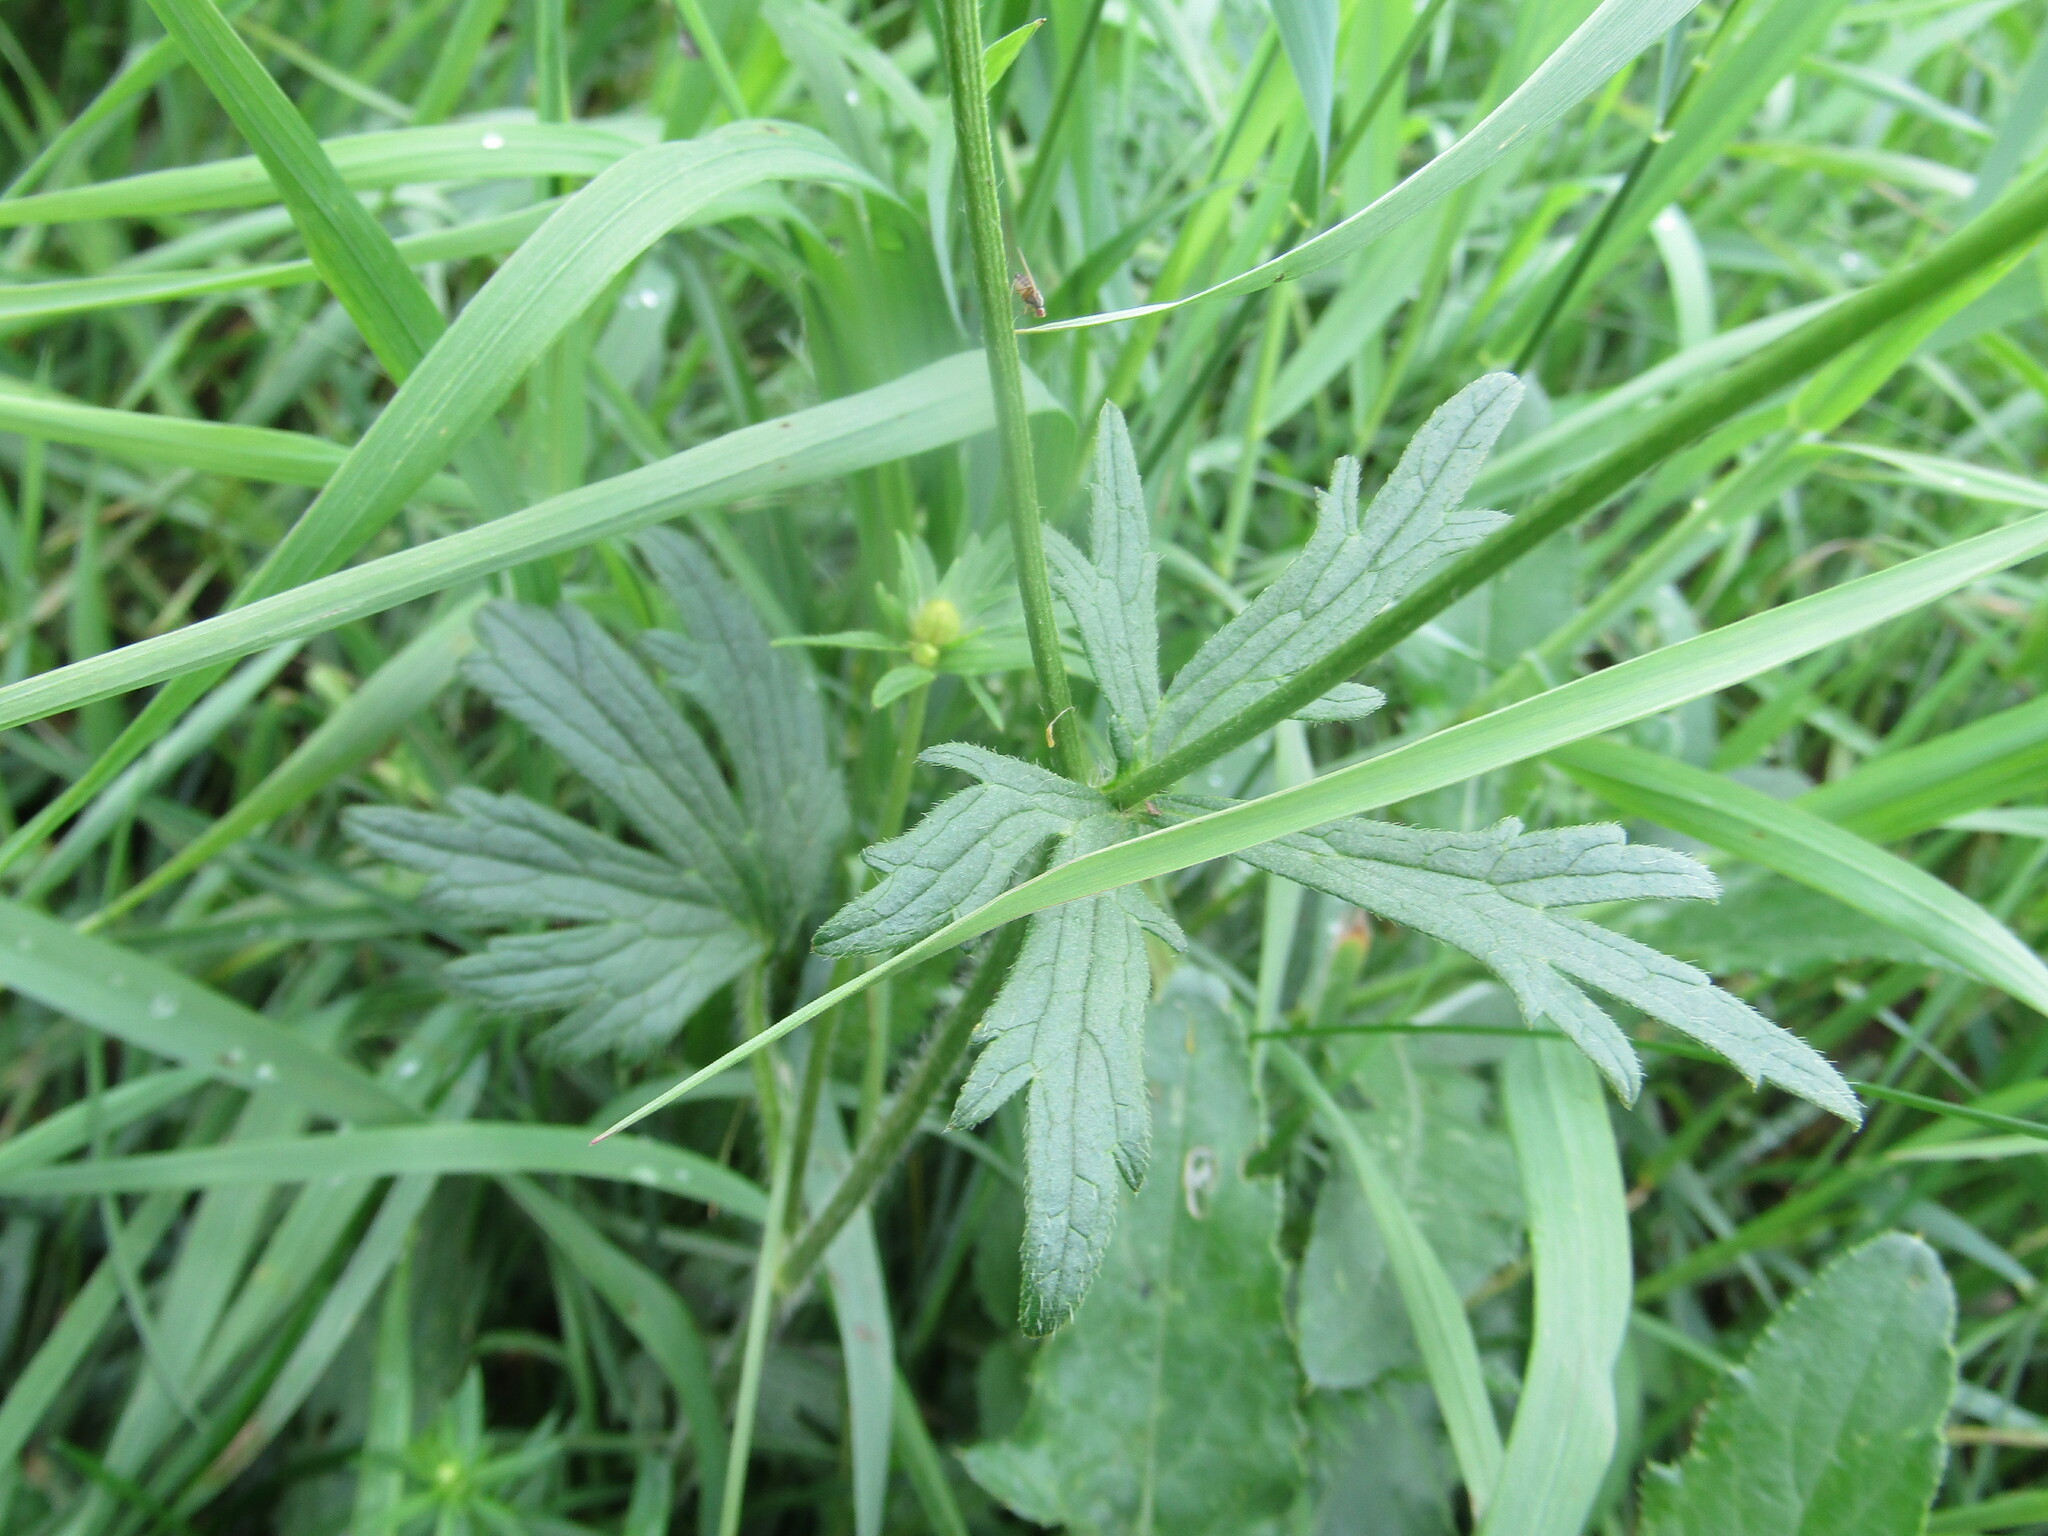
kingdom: Plantae
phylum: Tracheophyta
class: Magnoliopsida
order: Ranunculales
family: Ranunculaceae
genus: Ranunculus
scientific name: Ranunculus polyanthemos
